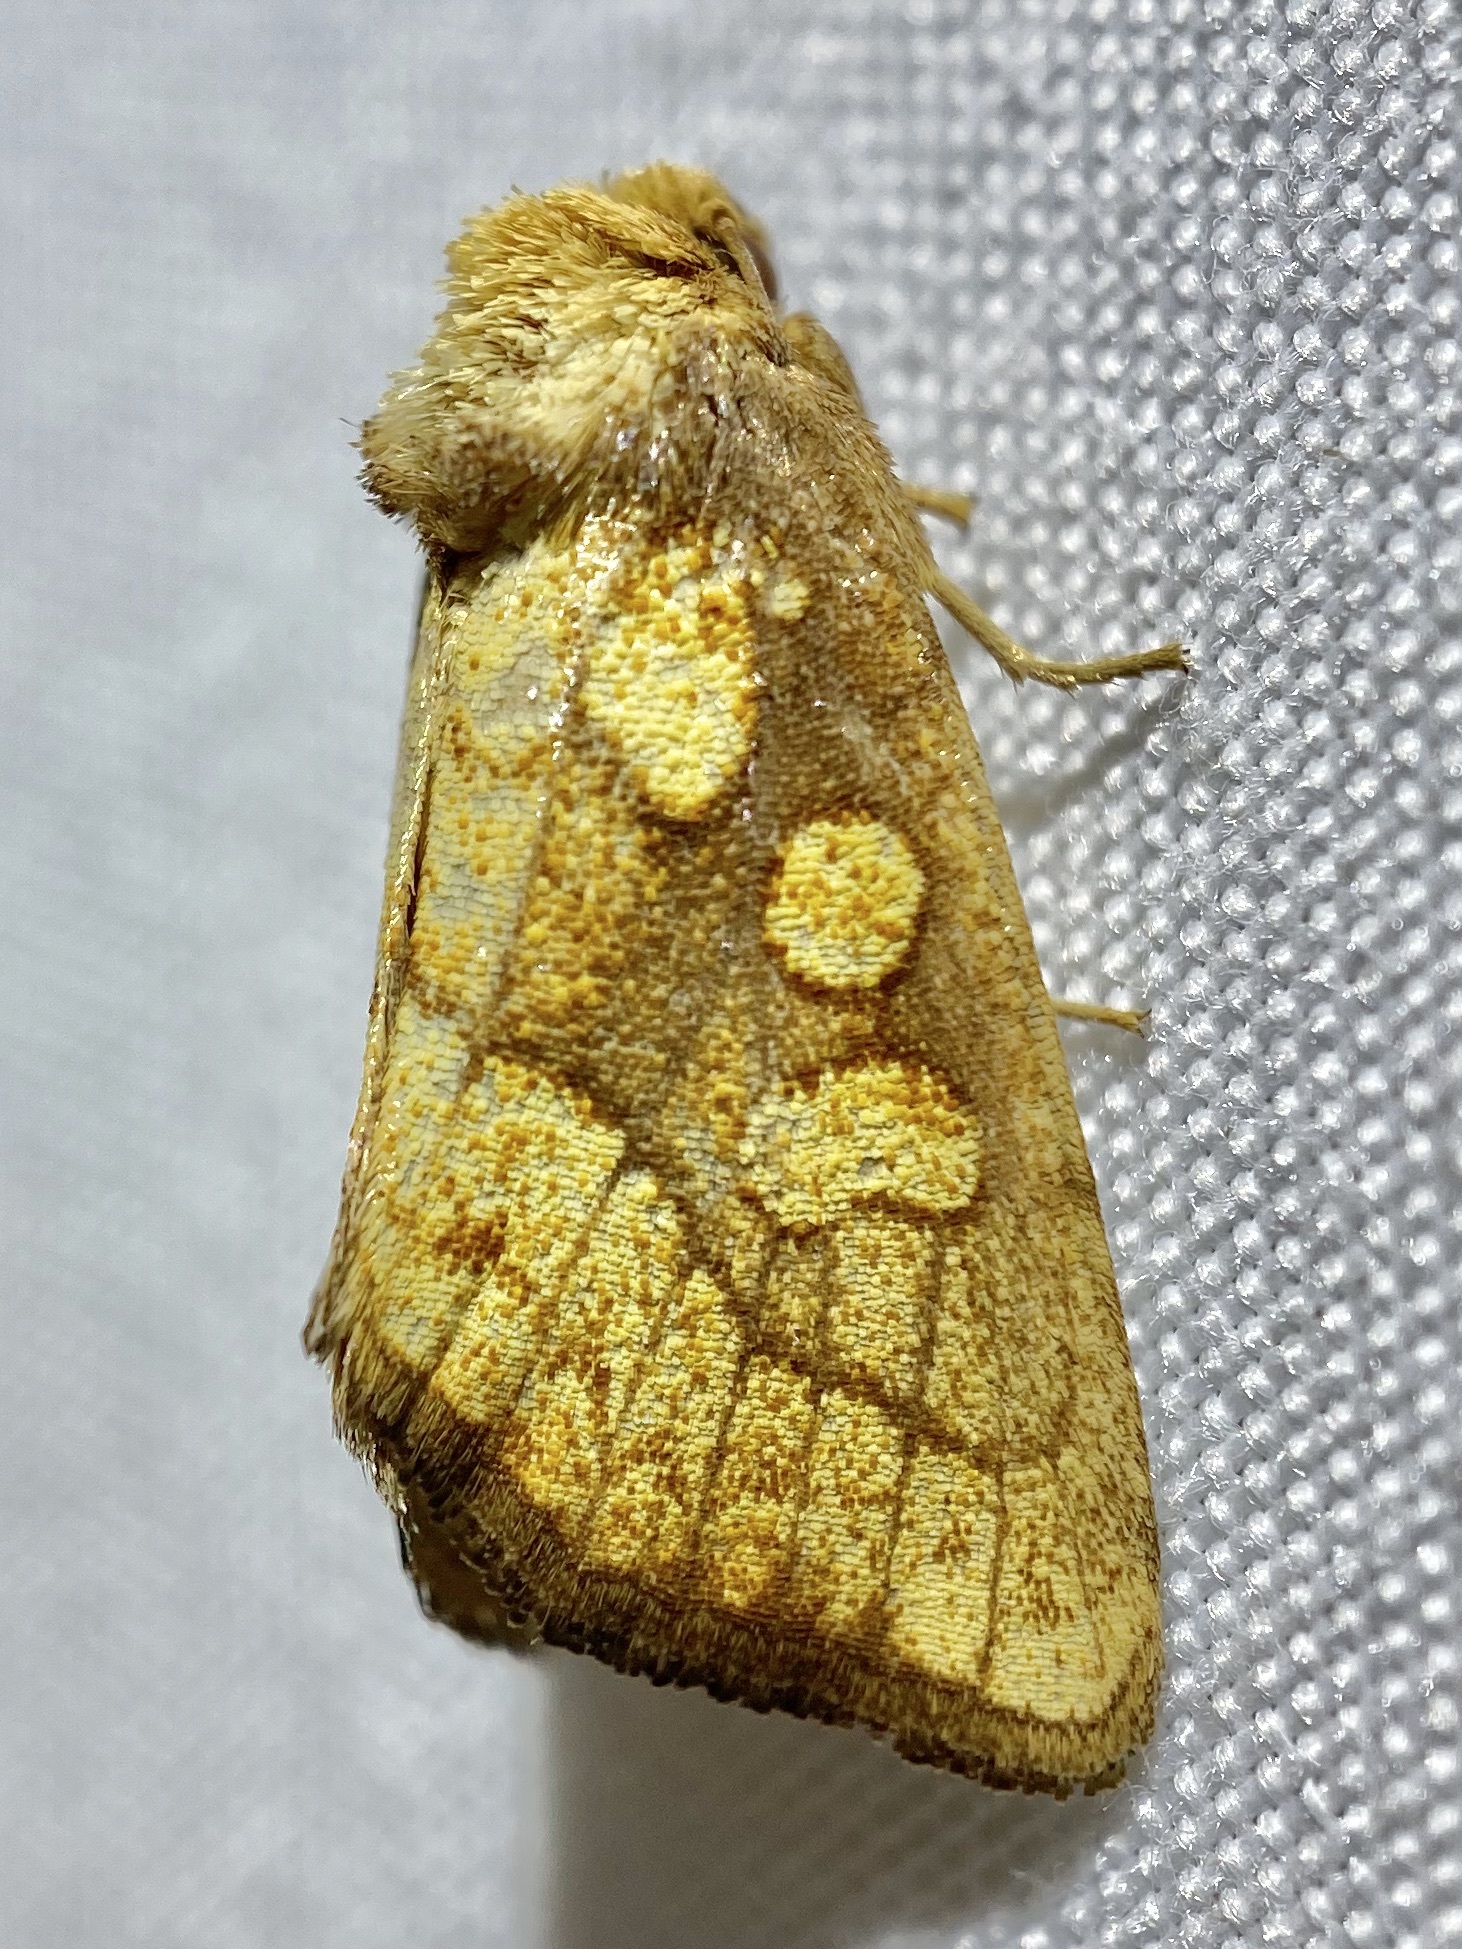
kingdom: Animalia
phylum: Arthropoda
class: Insecta
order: Lepidoptera
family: Noctuidae
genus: Nocloa
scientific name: Nocloa alcandra
